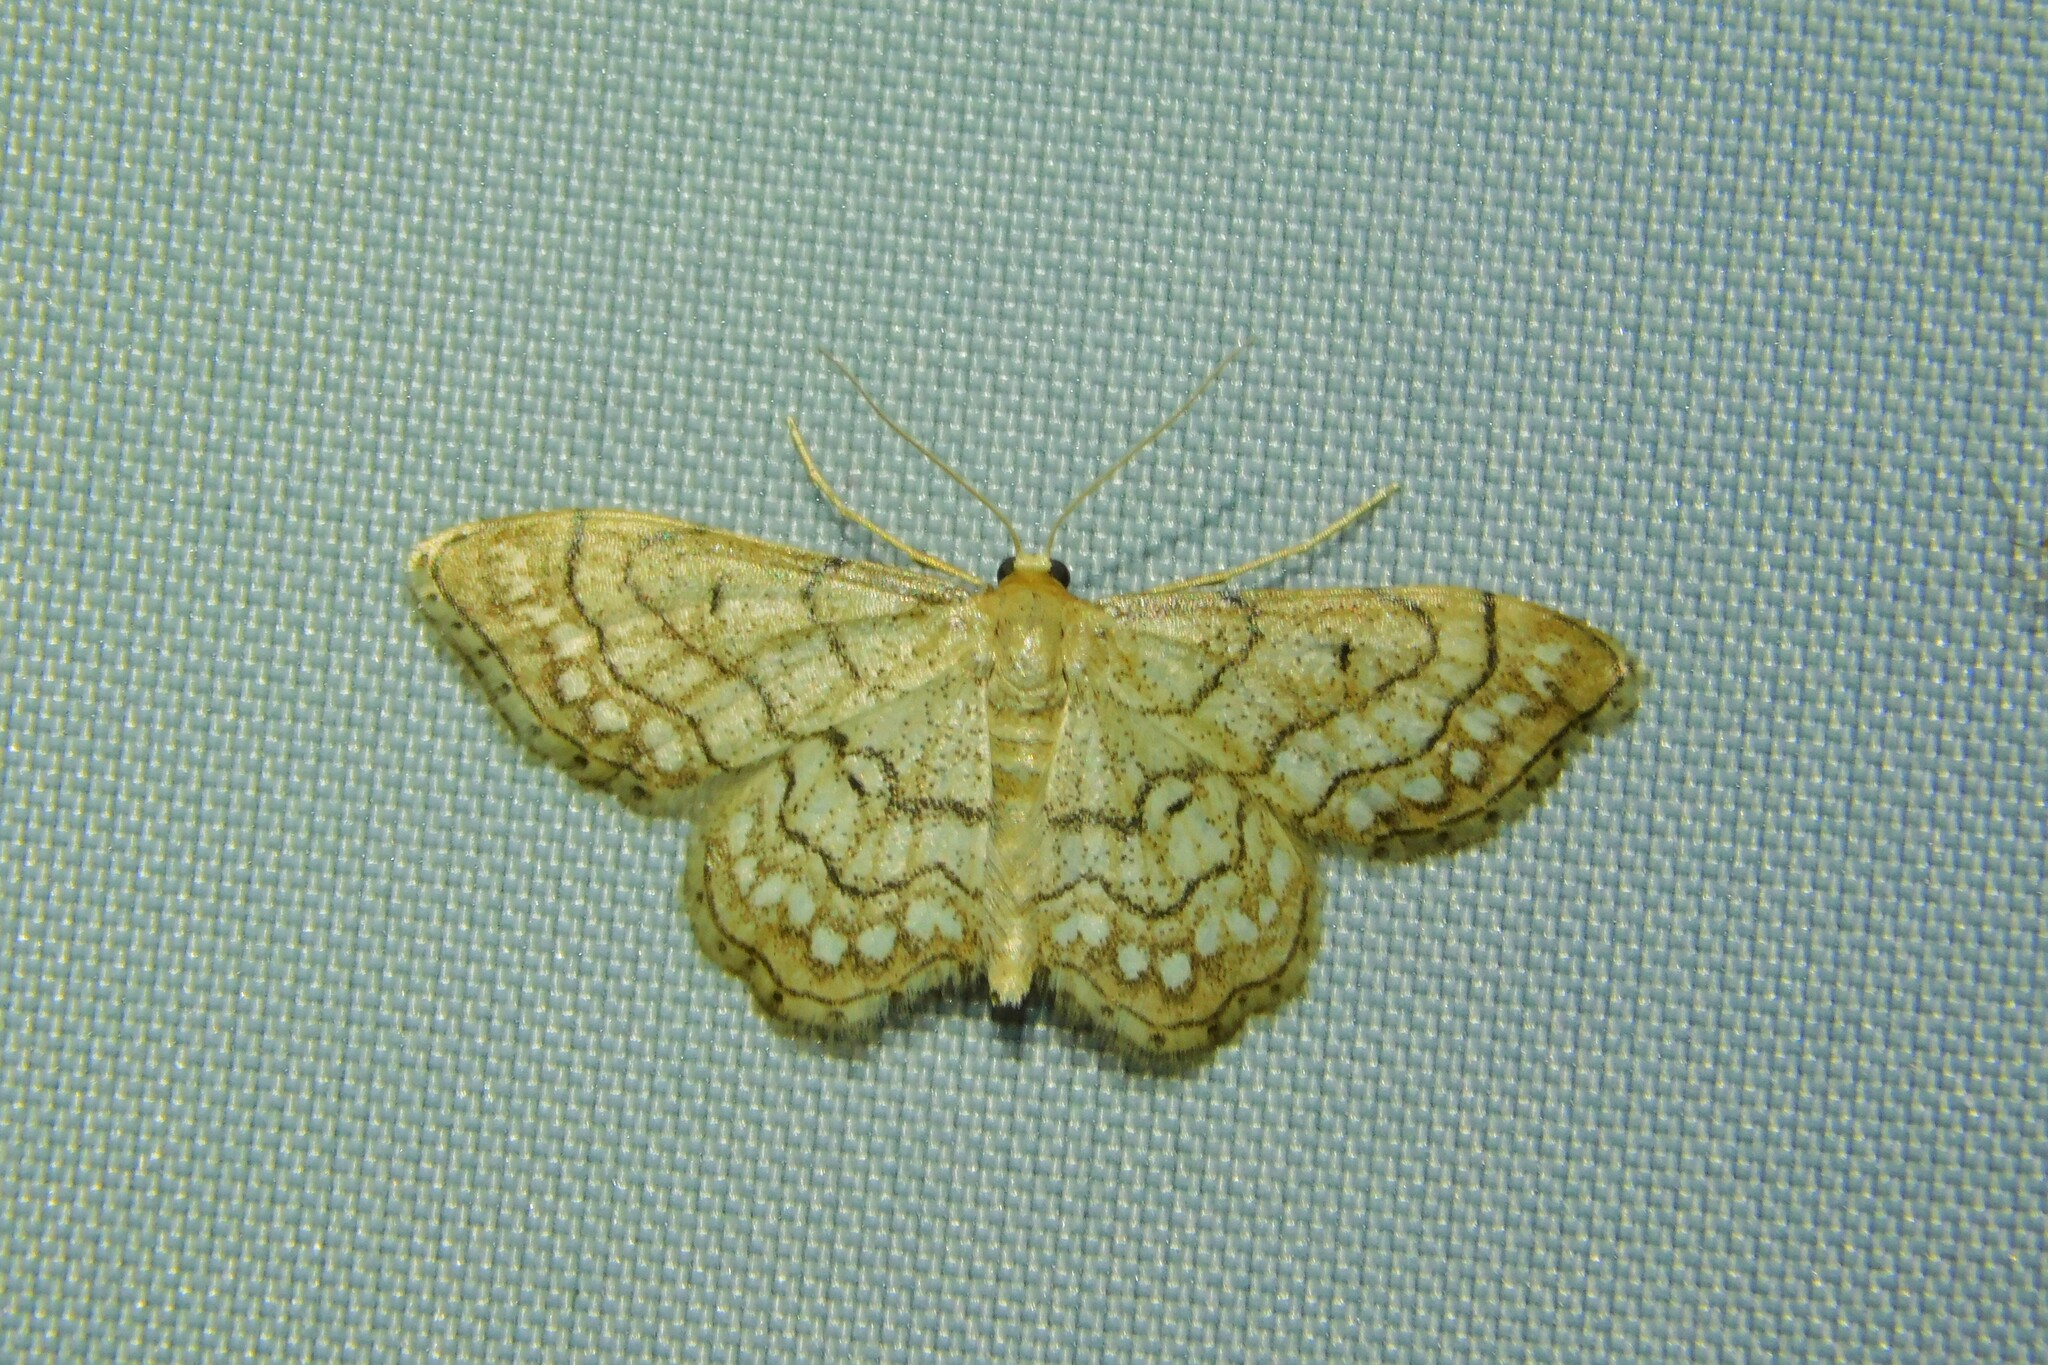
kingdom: Animalia
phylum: Arthropoda
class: Insecta
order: Lepidoptera
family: Geometridae
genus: Idaea
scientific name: Idaea moniliata
